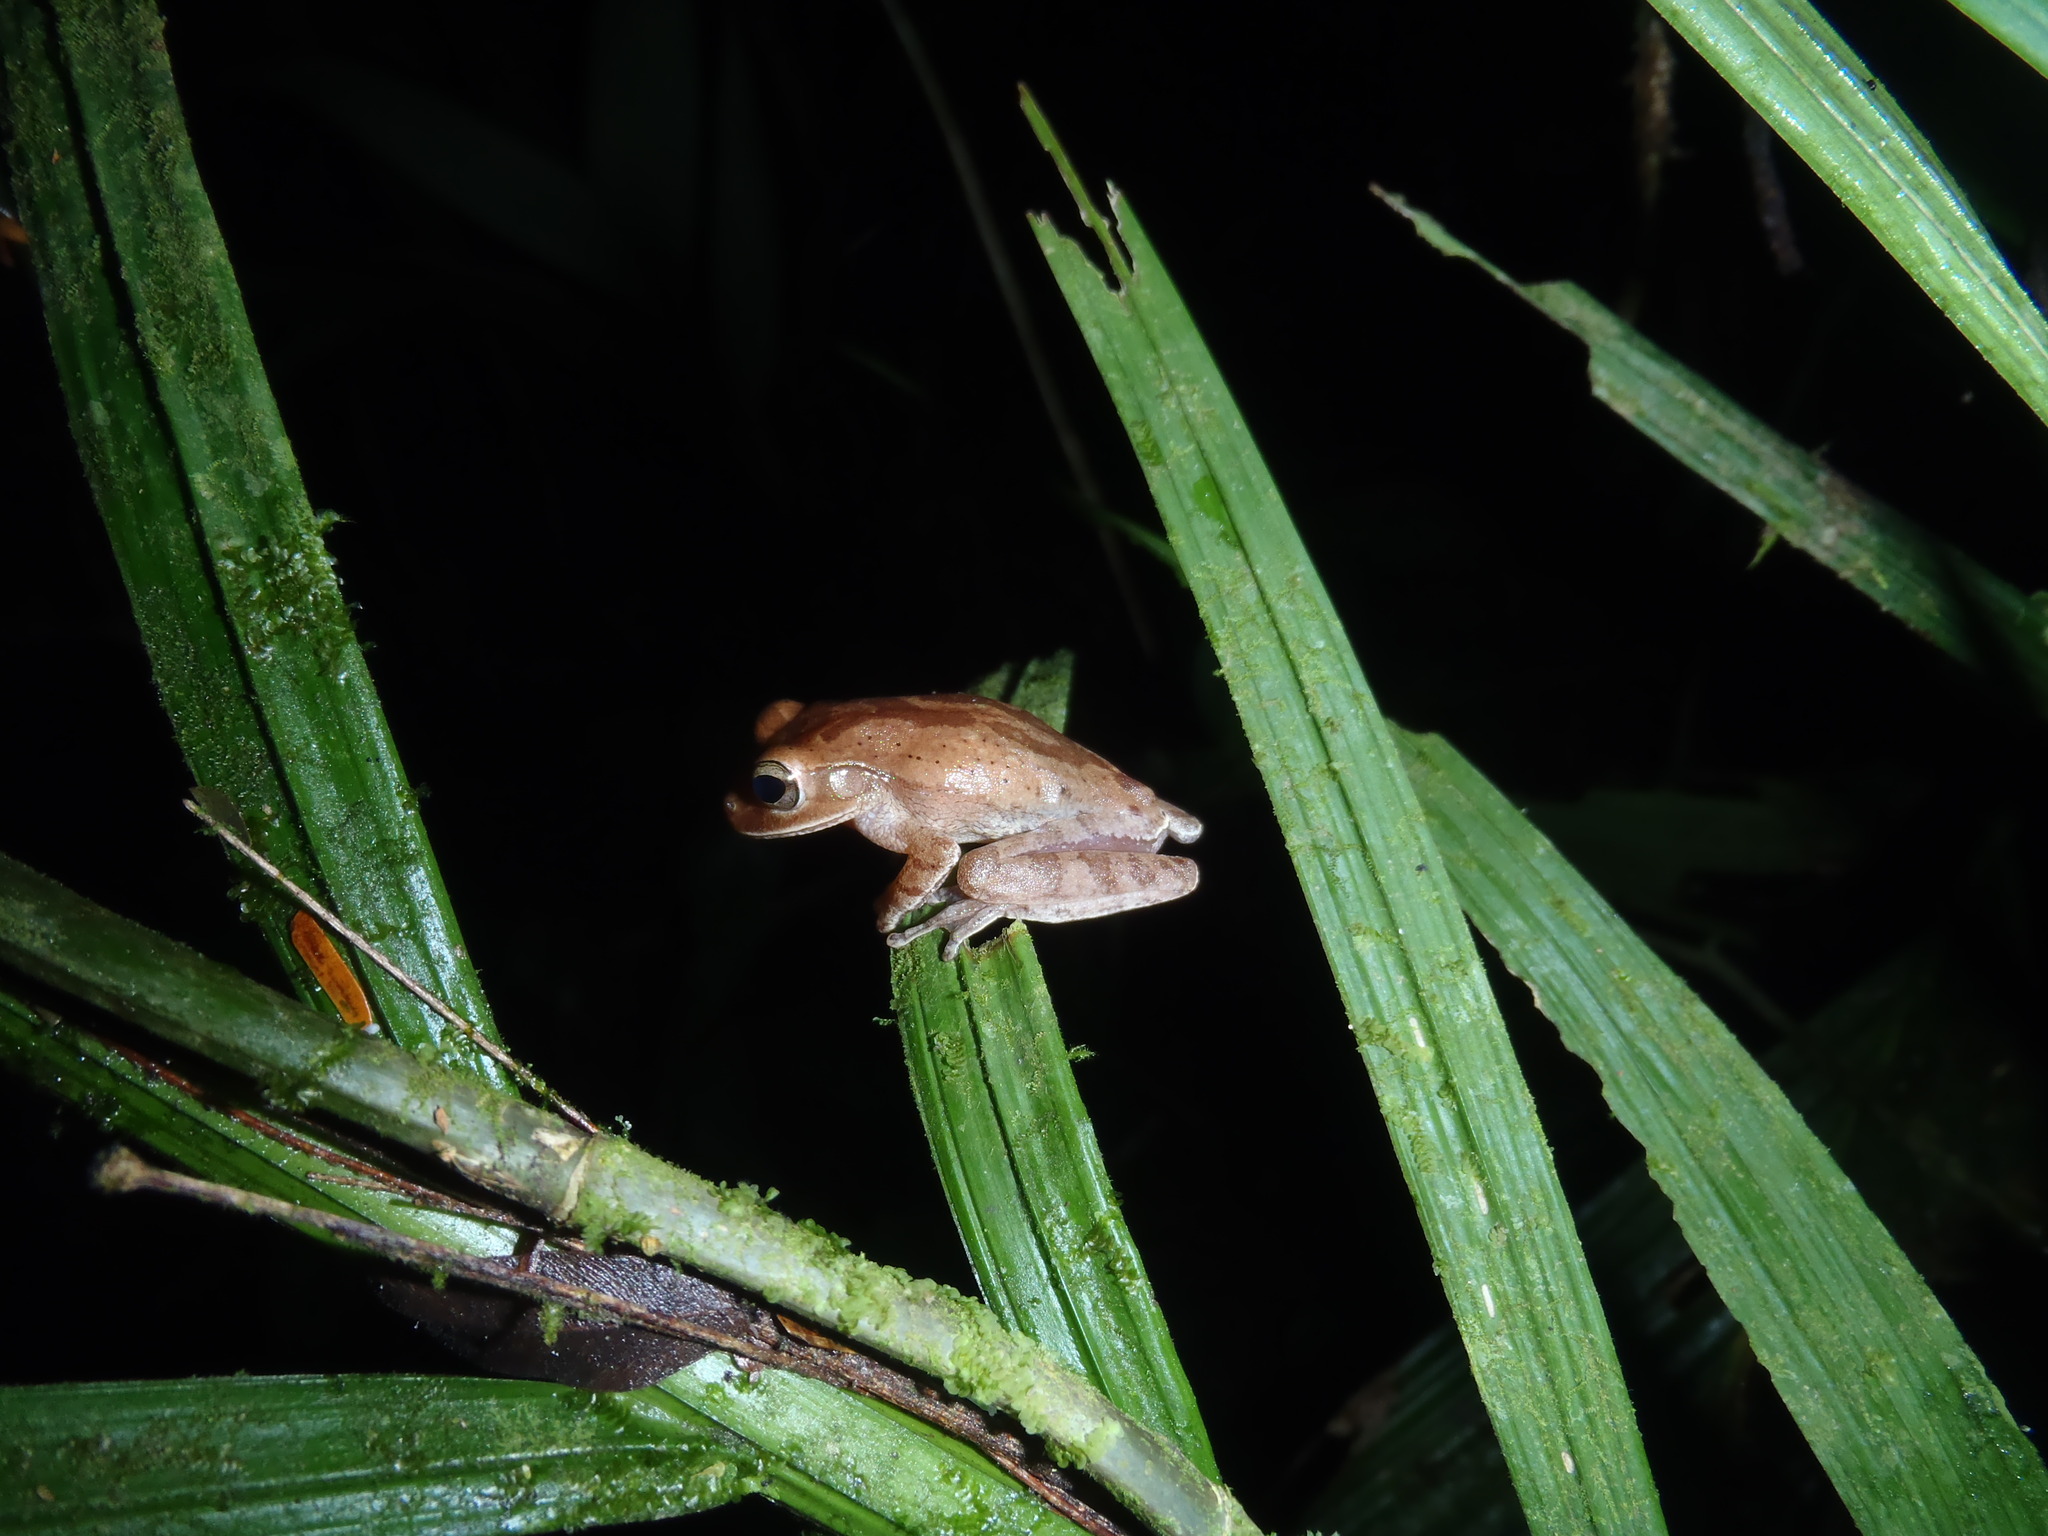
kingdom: Animalia
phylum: Chordata
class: Amphibia
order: Anura
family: Hylidae
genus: Smilisca
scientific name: Smilisca puma
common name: Nicaragua cross-banded treefrog
